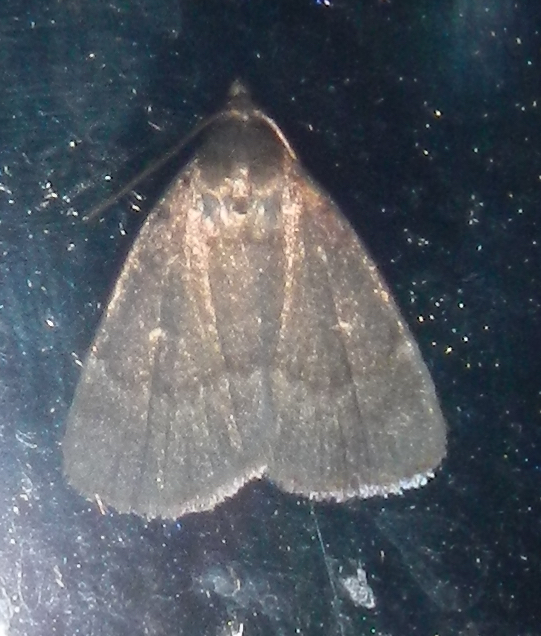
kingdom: Animalia
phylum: Arthropoda
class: Insecta
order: Lepidoptera
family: Erebidae
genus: Idia
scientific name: Idia rotundalis
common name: Rotund idia moth
